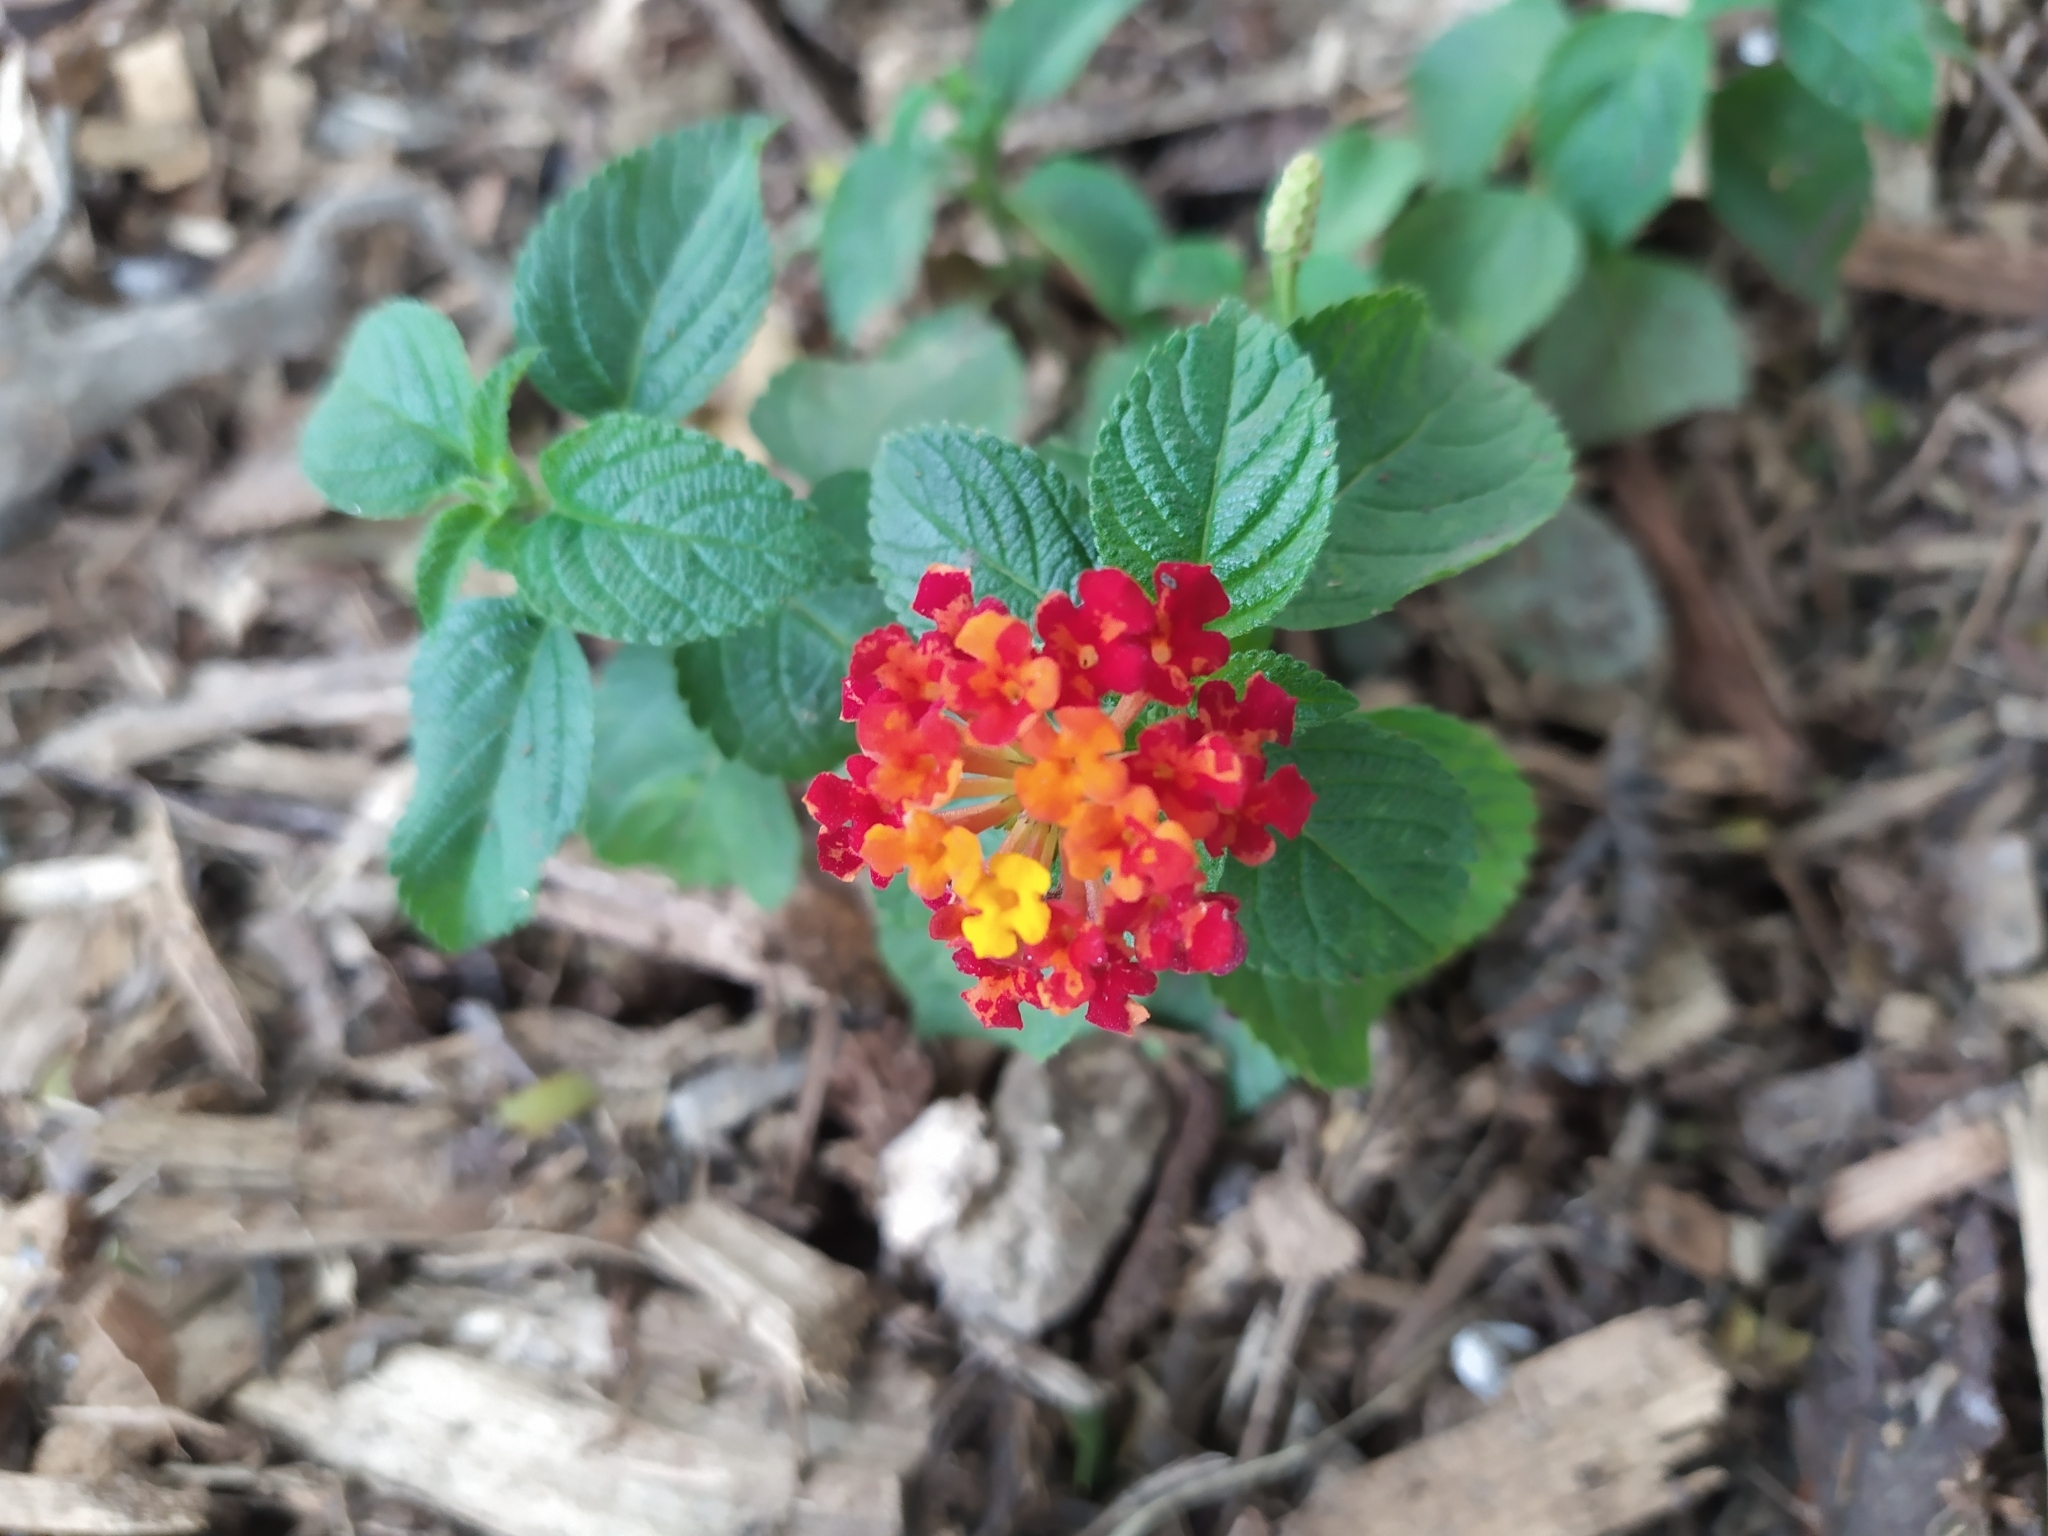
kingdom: Plantae
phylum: Tracheophyta
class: Magnoliopsida
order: Lamiales
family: Verbenaceae
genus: Lantana
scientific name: Lantana horrida
